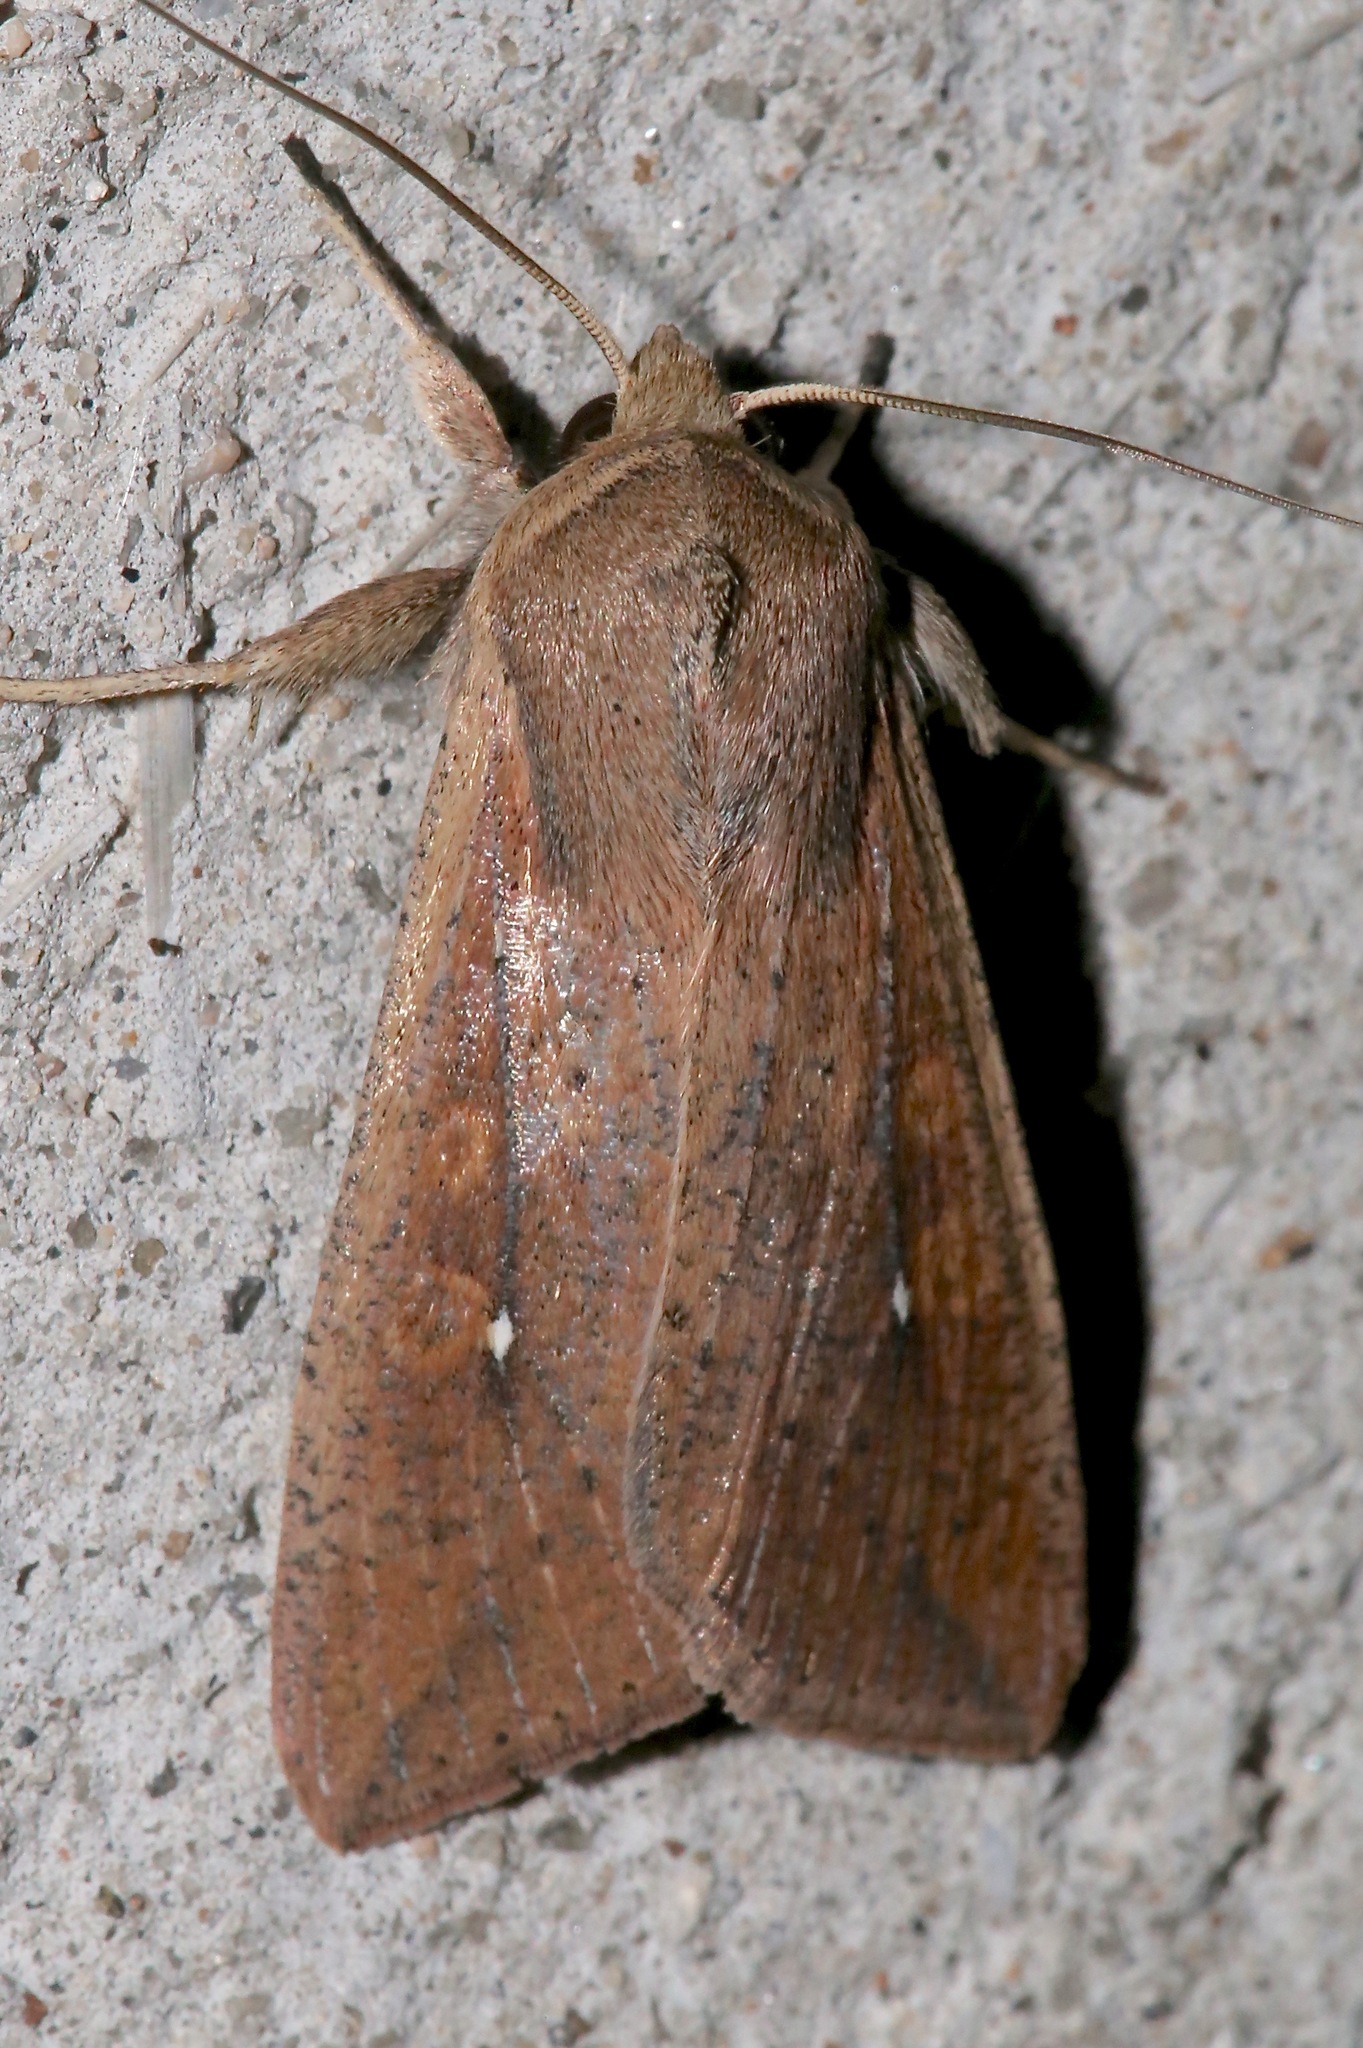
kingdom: Animalia
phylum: Arthropoda
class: Insecta
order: Lepidoptera
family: Noctuidae
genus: Mythimna
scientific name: Mythimna unipuncta
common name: White-speck
